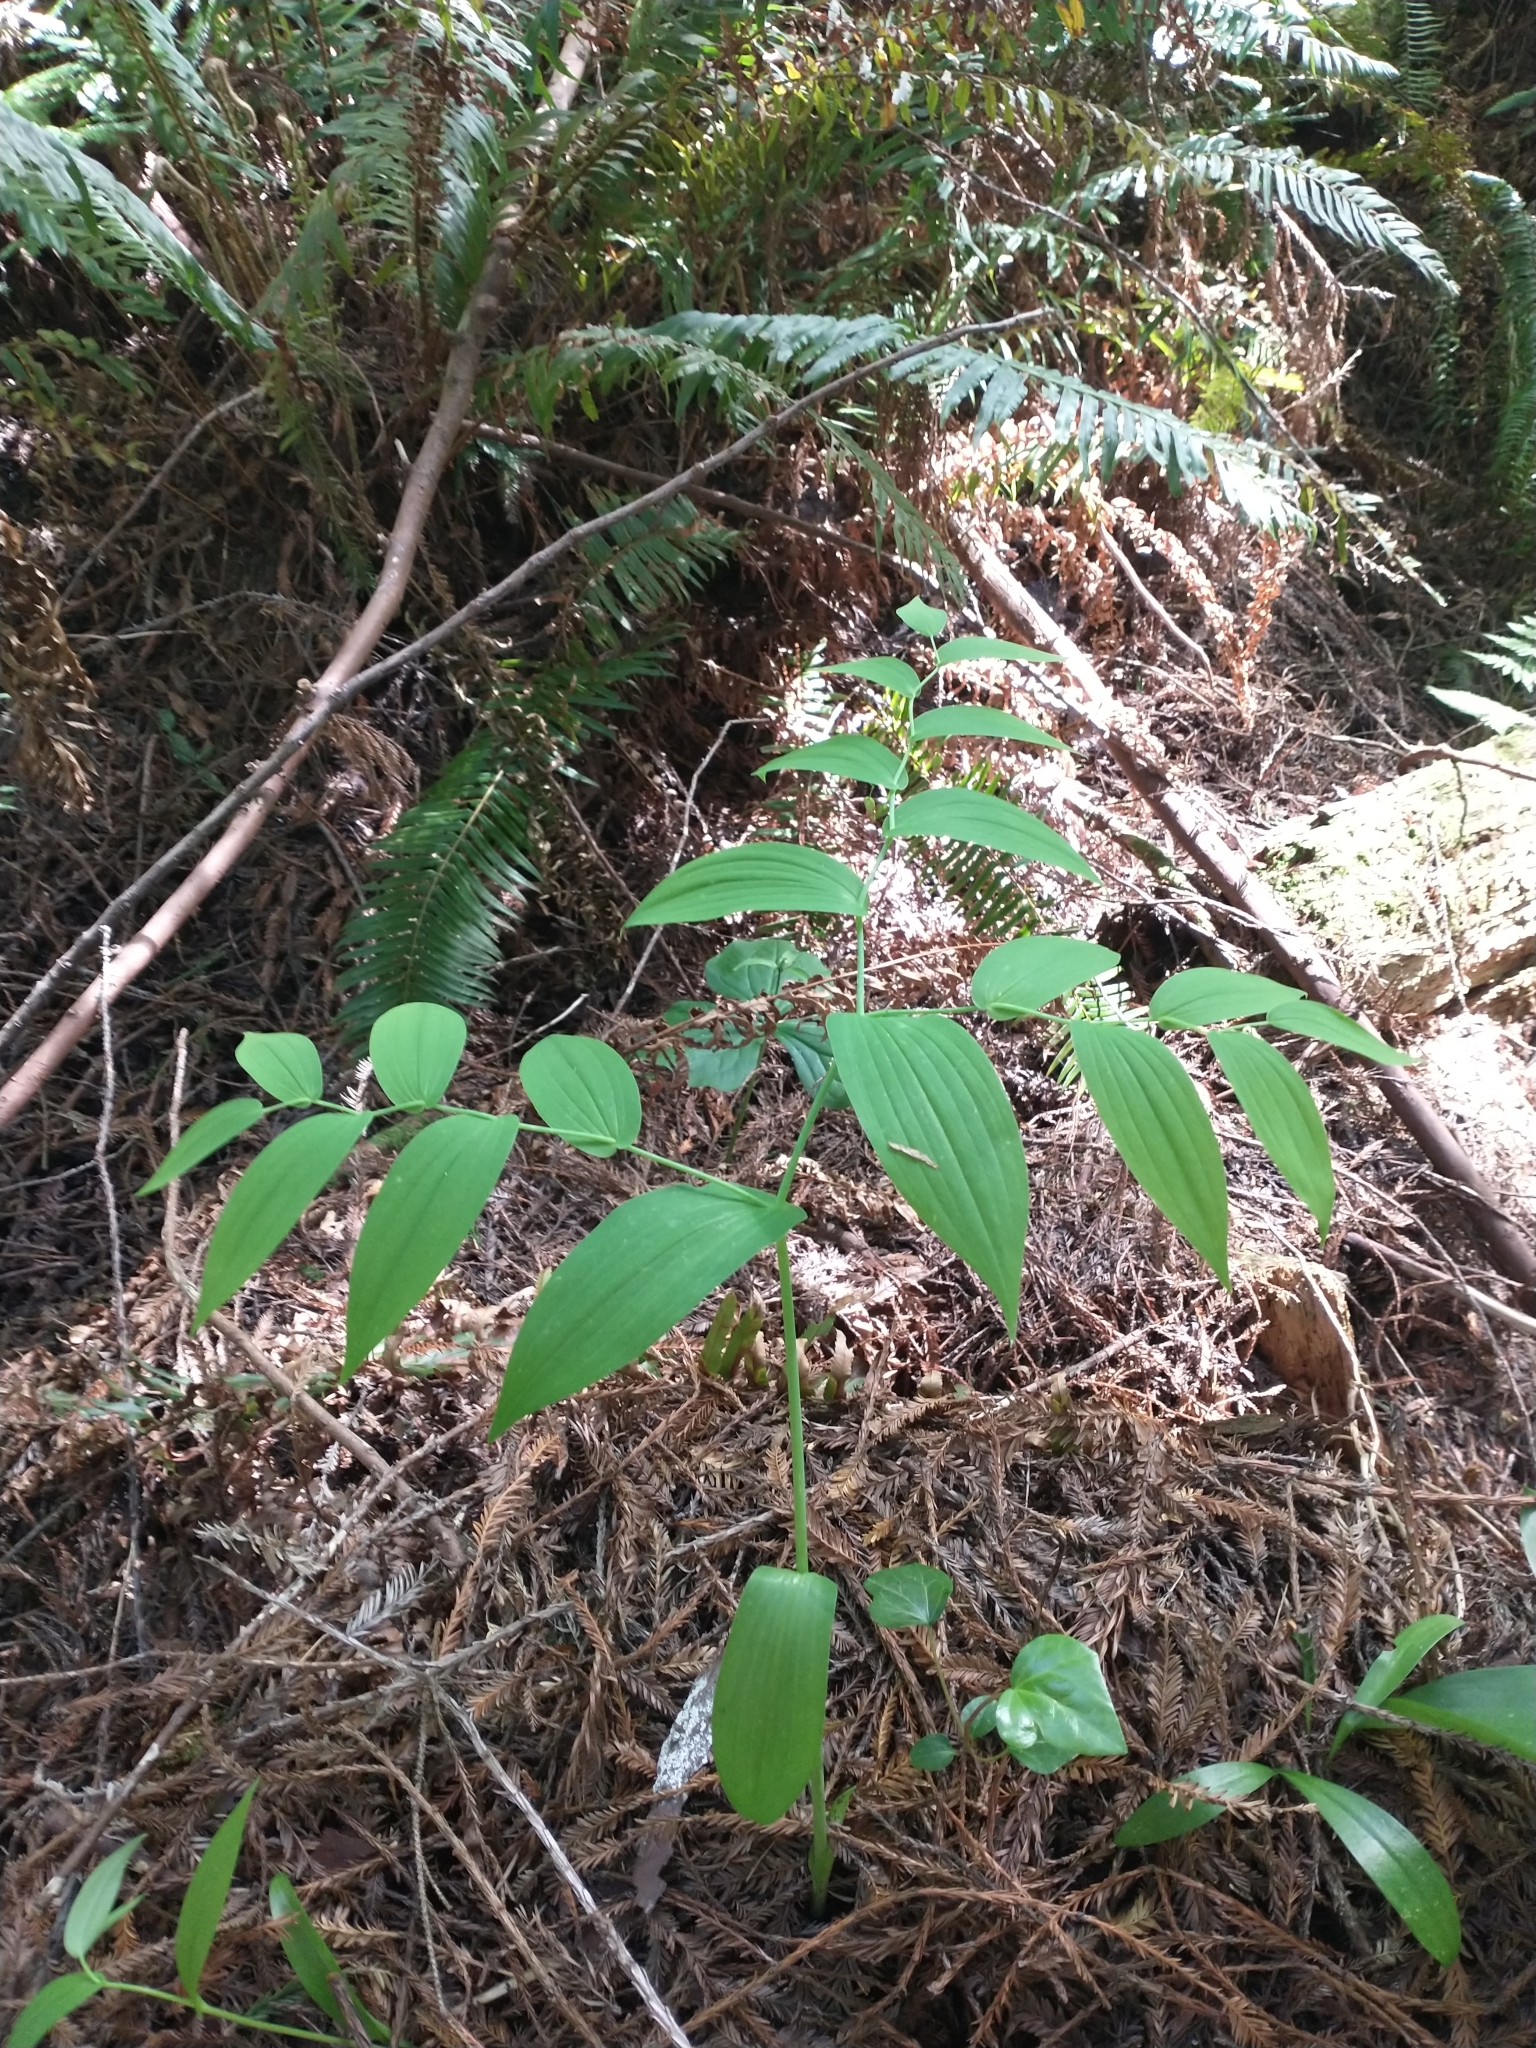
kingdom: Plantae
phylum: Tracheophyta
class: Liliopsida
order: Liliales
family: Liliaceae
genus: Streptopus
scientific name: Streptopus amplexifolius
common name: Clasp twisted stalk
